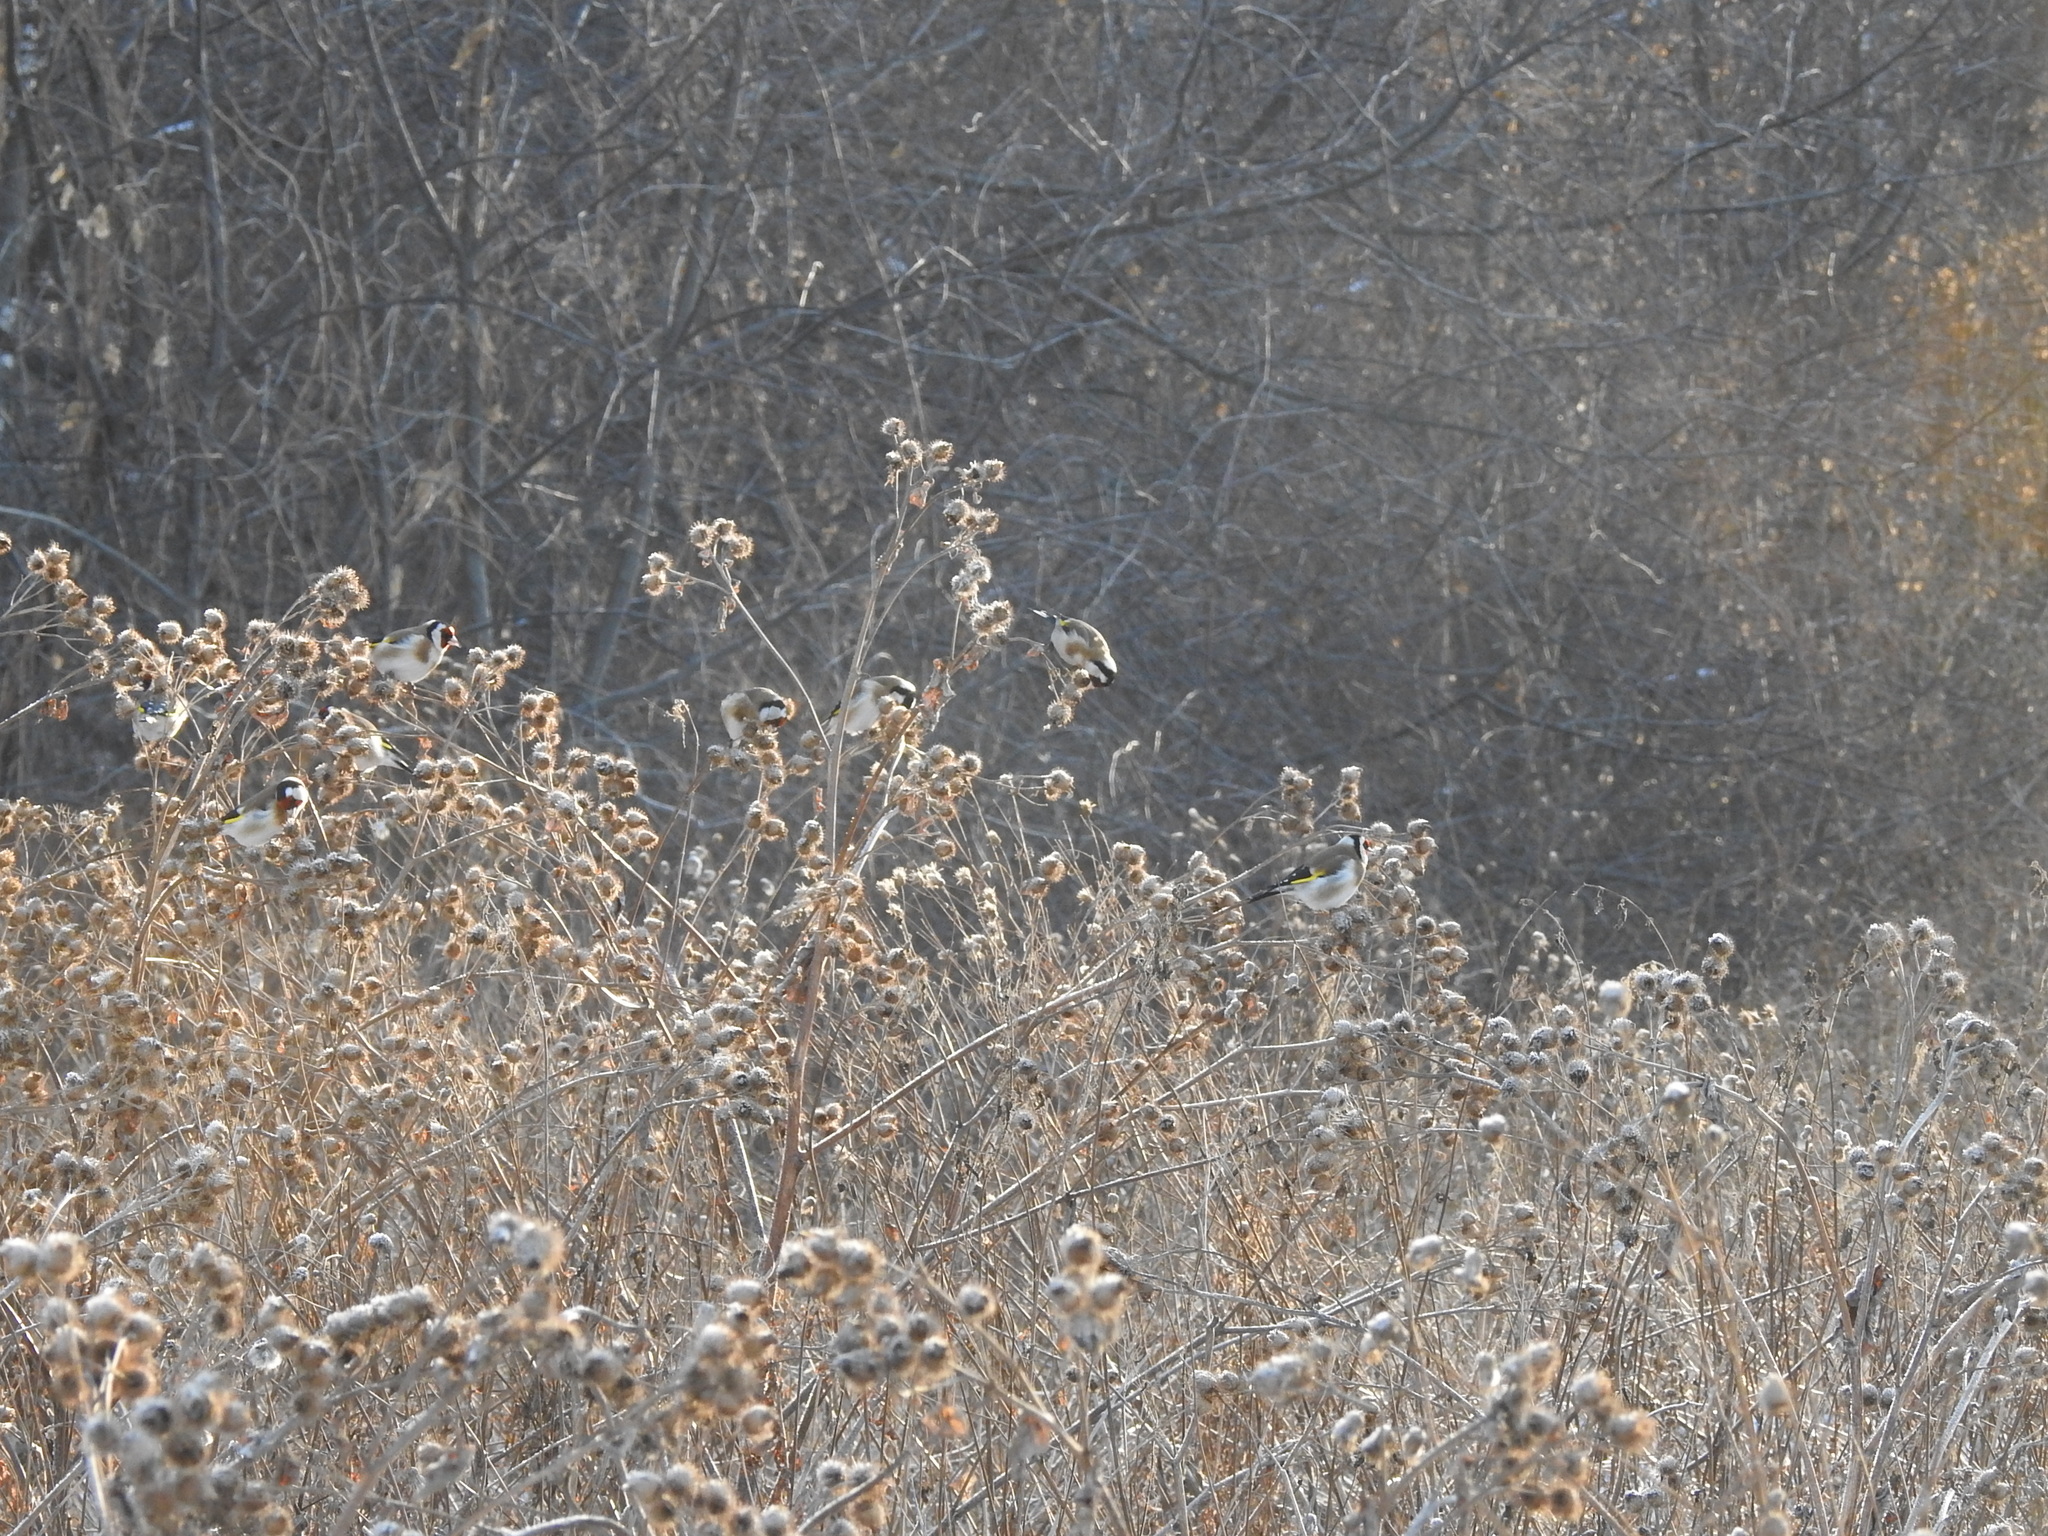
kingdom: Animalia
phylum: Chordata
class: Aves
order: Passeriformes
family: Fringillidae
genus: Carduelis
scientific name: Carduelis carduelis
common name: European goldfinch
